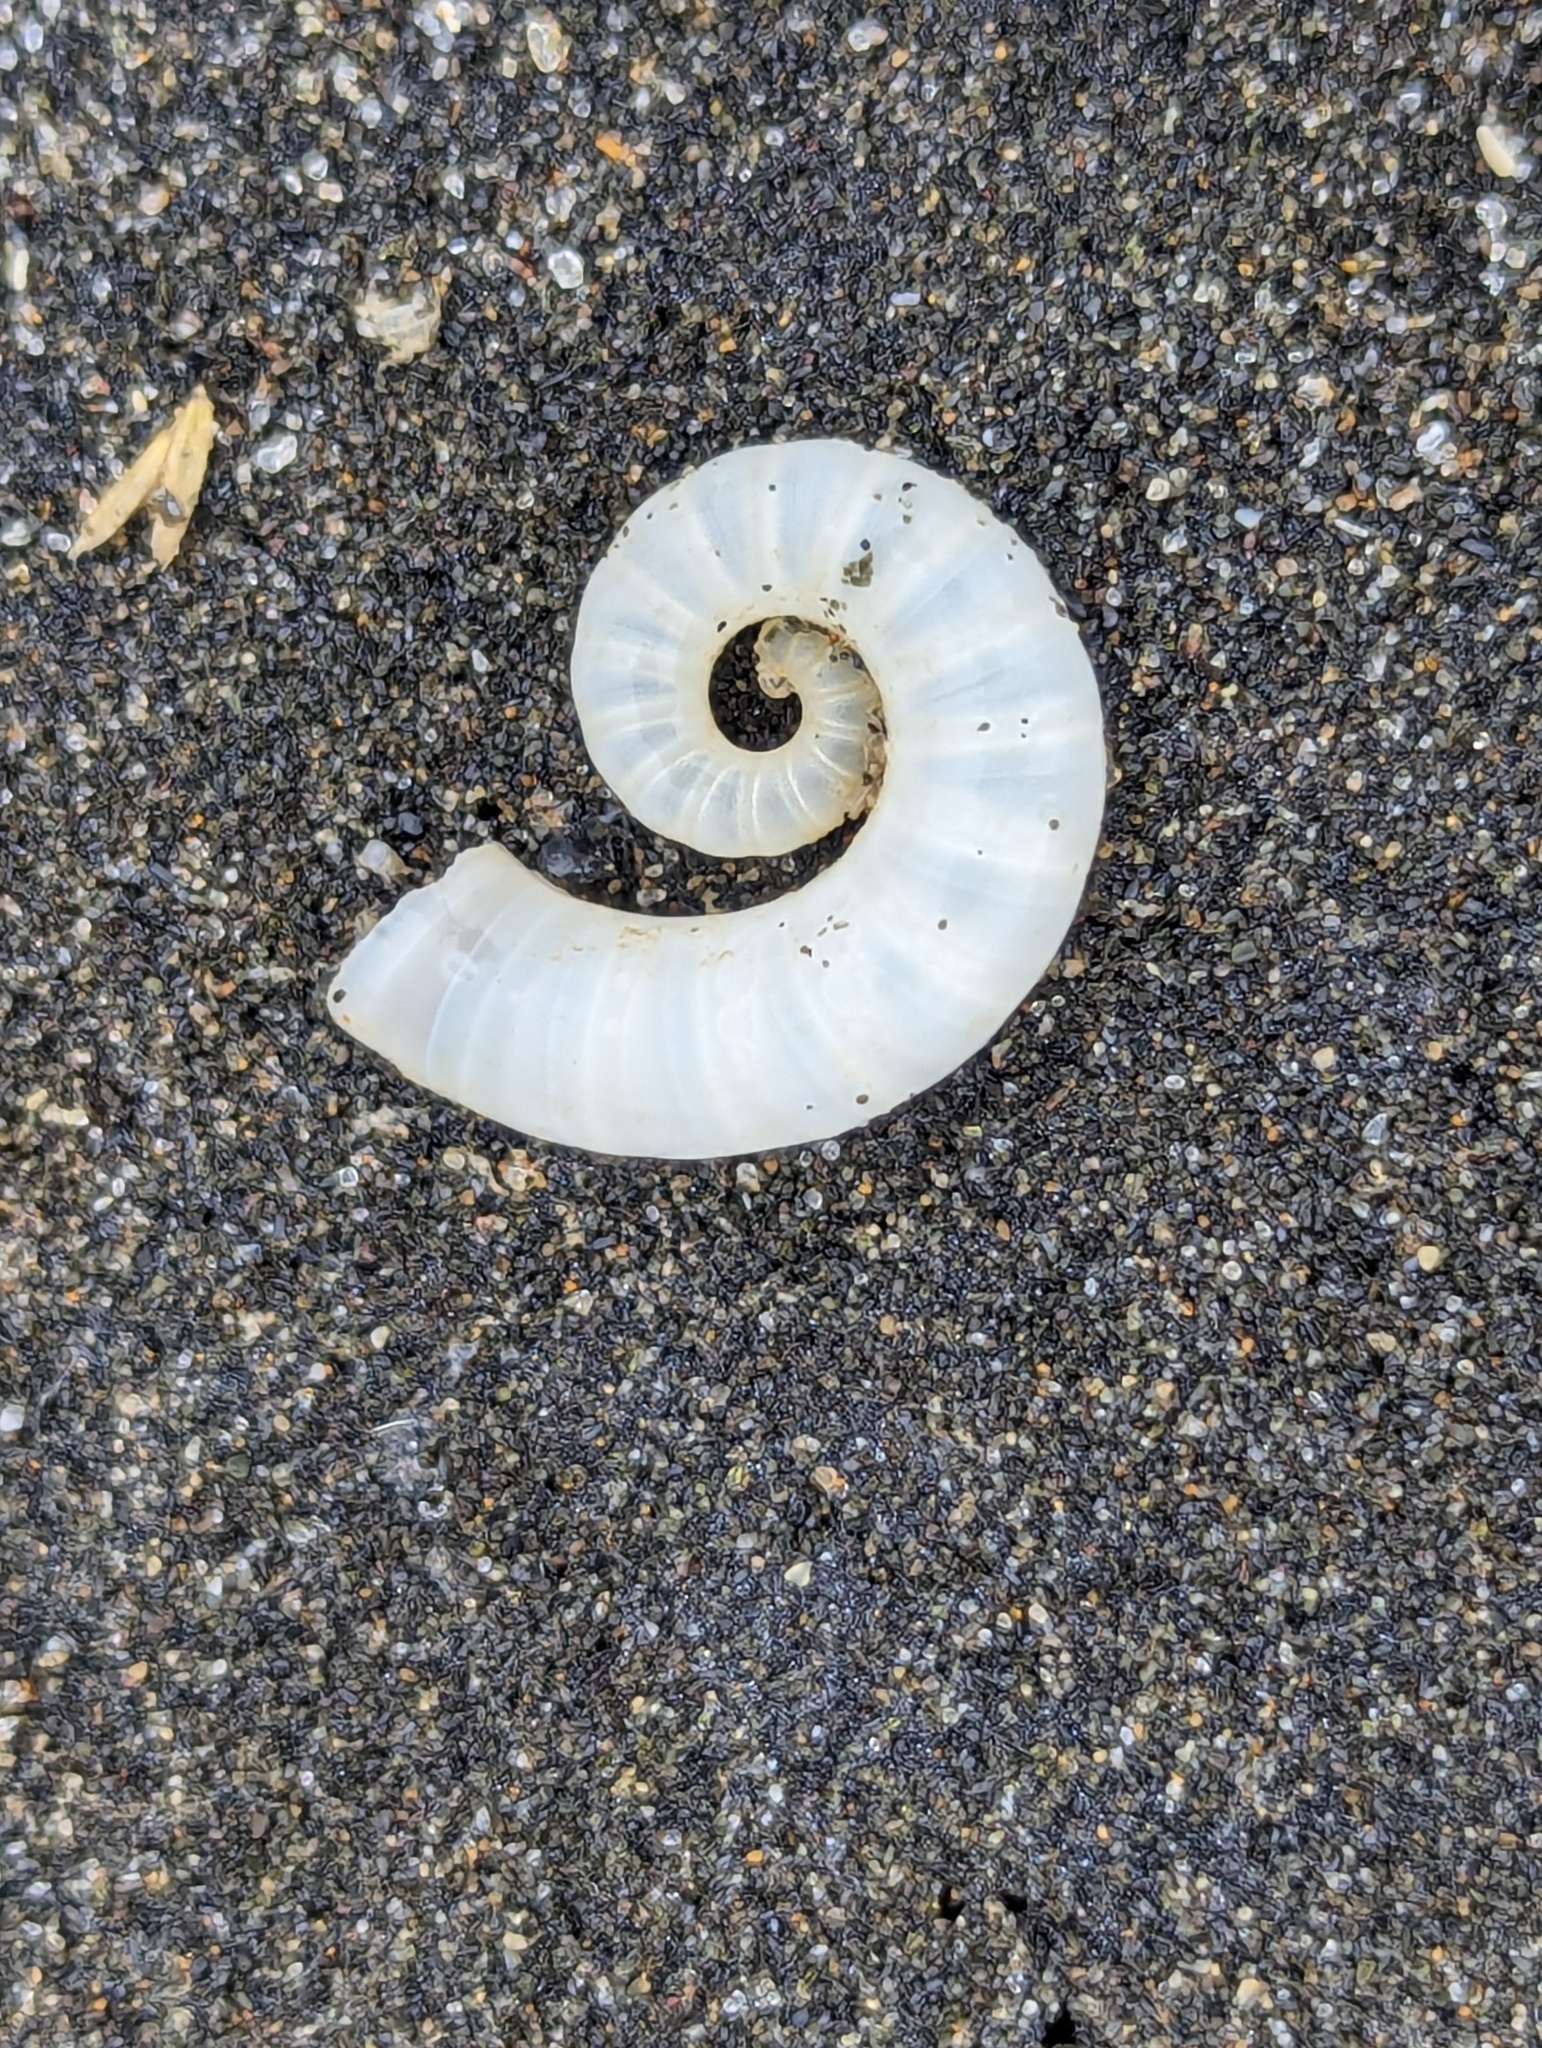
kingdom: Animalia
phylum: Mollusca
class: Cephalopoda
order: Spirulida
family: Spirulidae
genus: Spirula
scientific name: Spirula spirula
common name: Ram's horn squid
